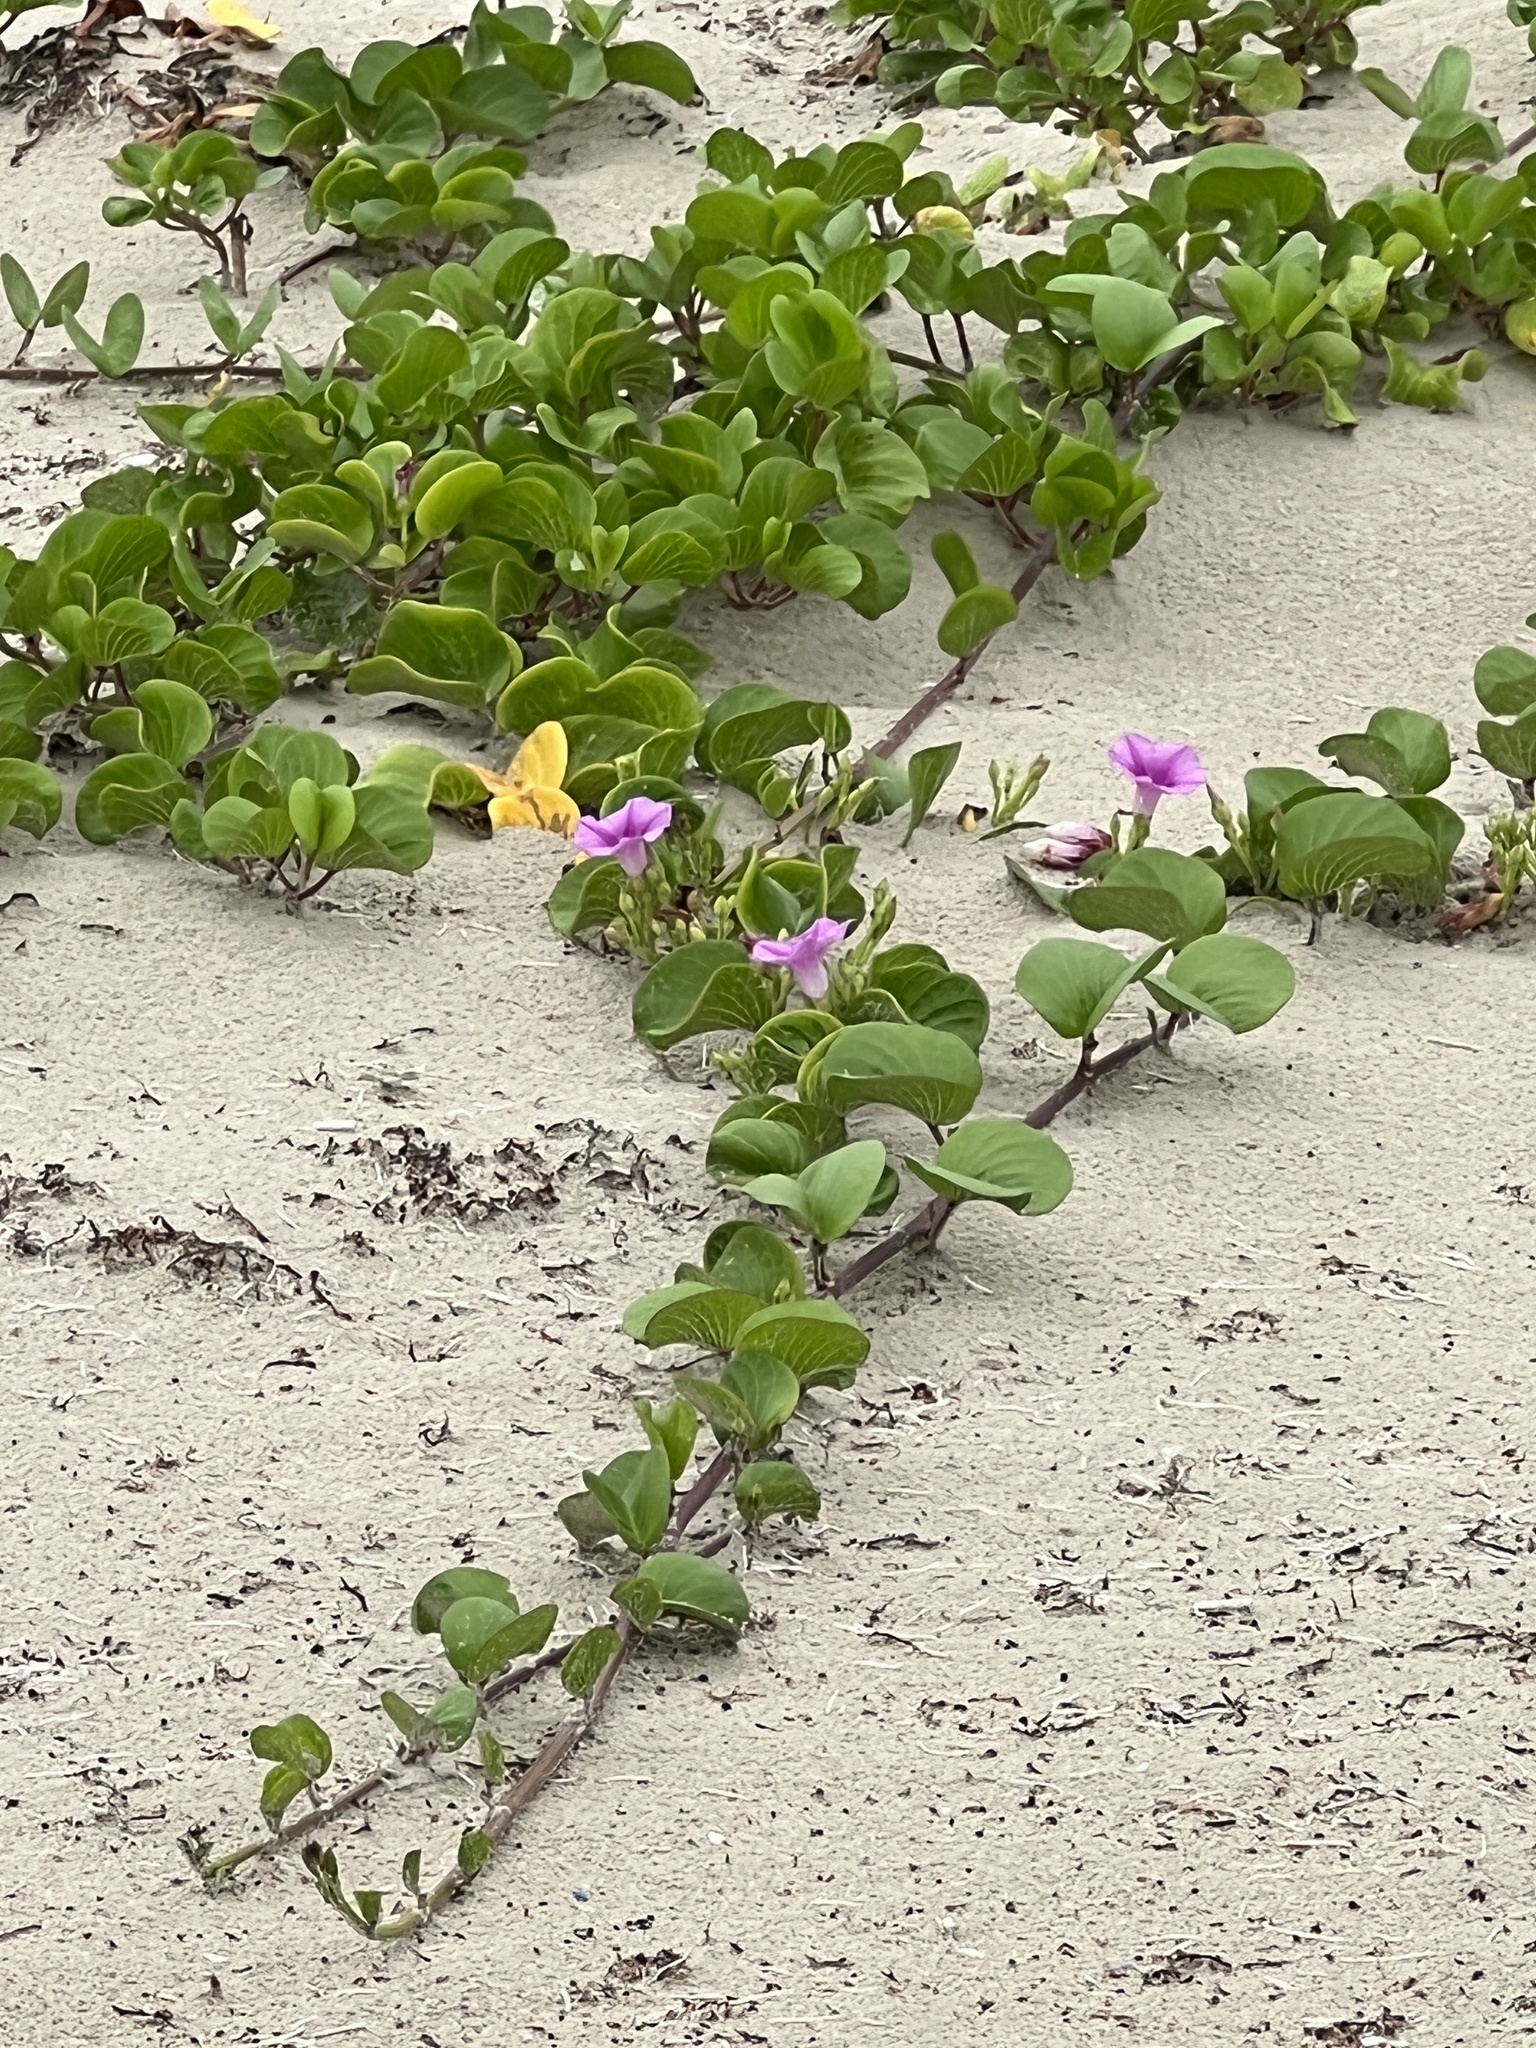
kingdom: Plantae
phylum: Tracheophyta
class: Magnoliopsida
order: Solanales
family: Convolvulaceae
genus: Ipomoea
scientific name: Ipomoea pes-caprae
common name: Beach morning glory
